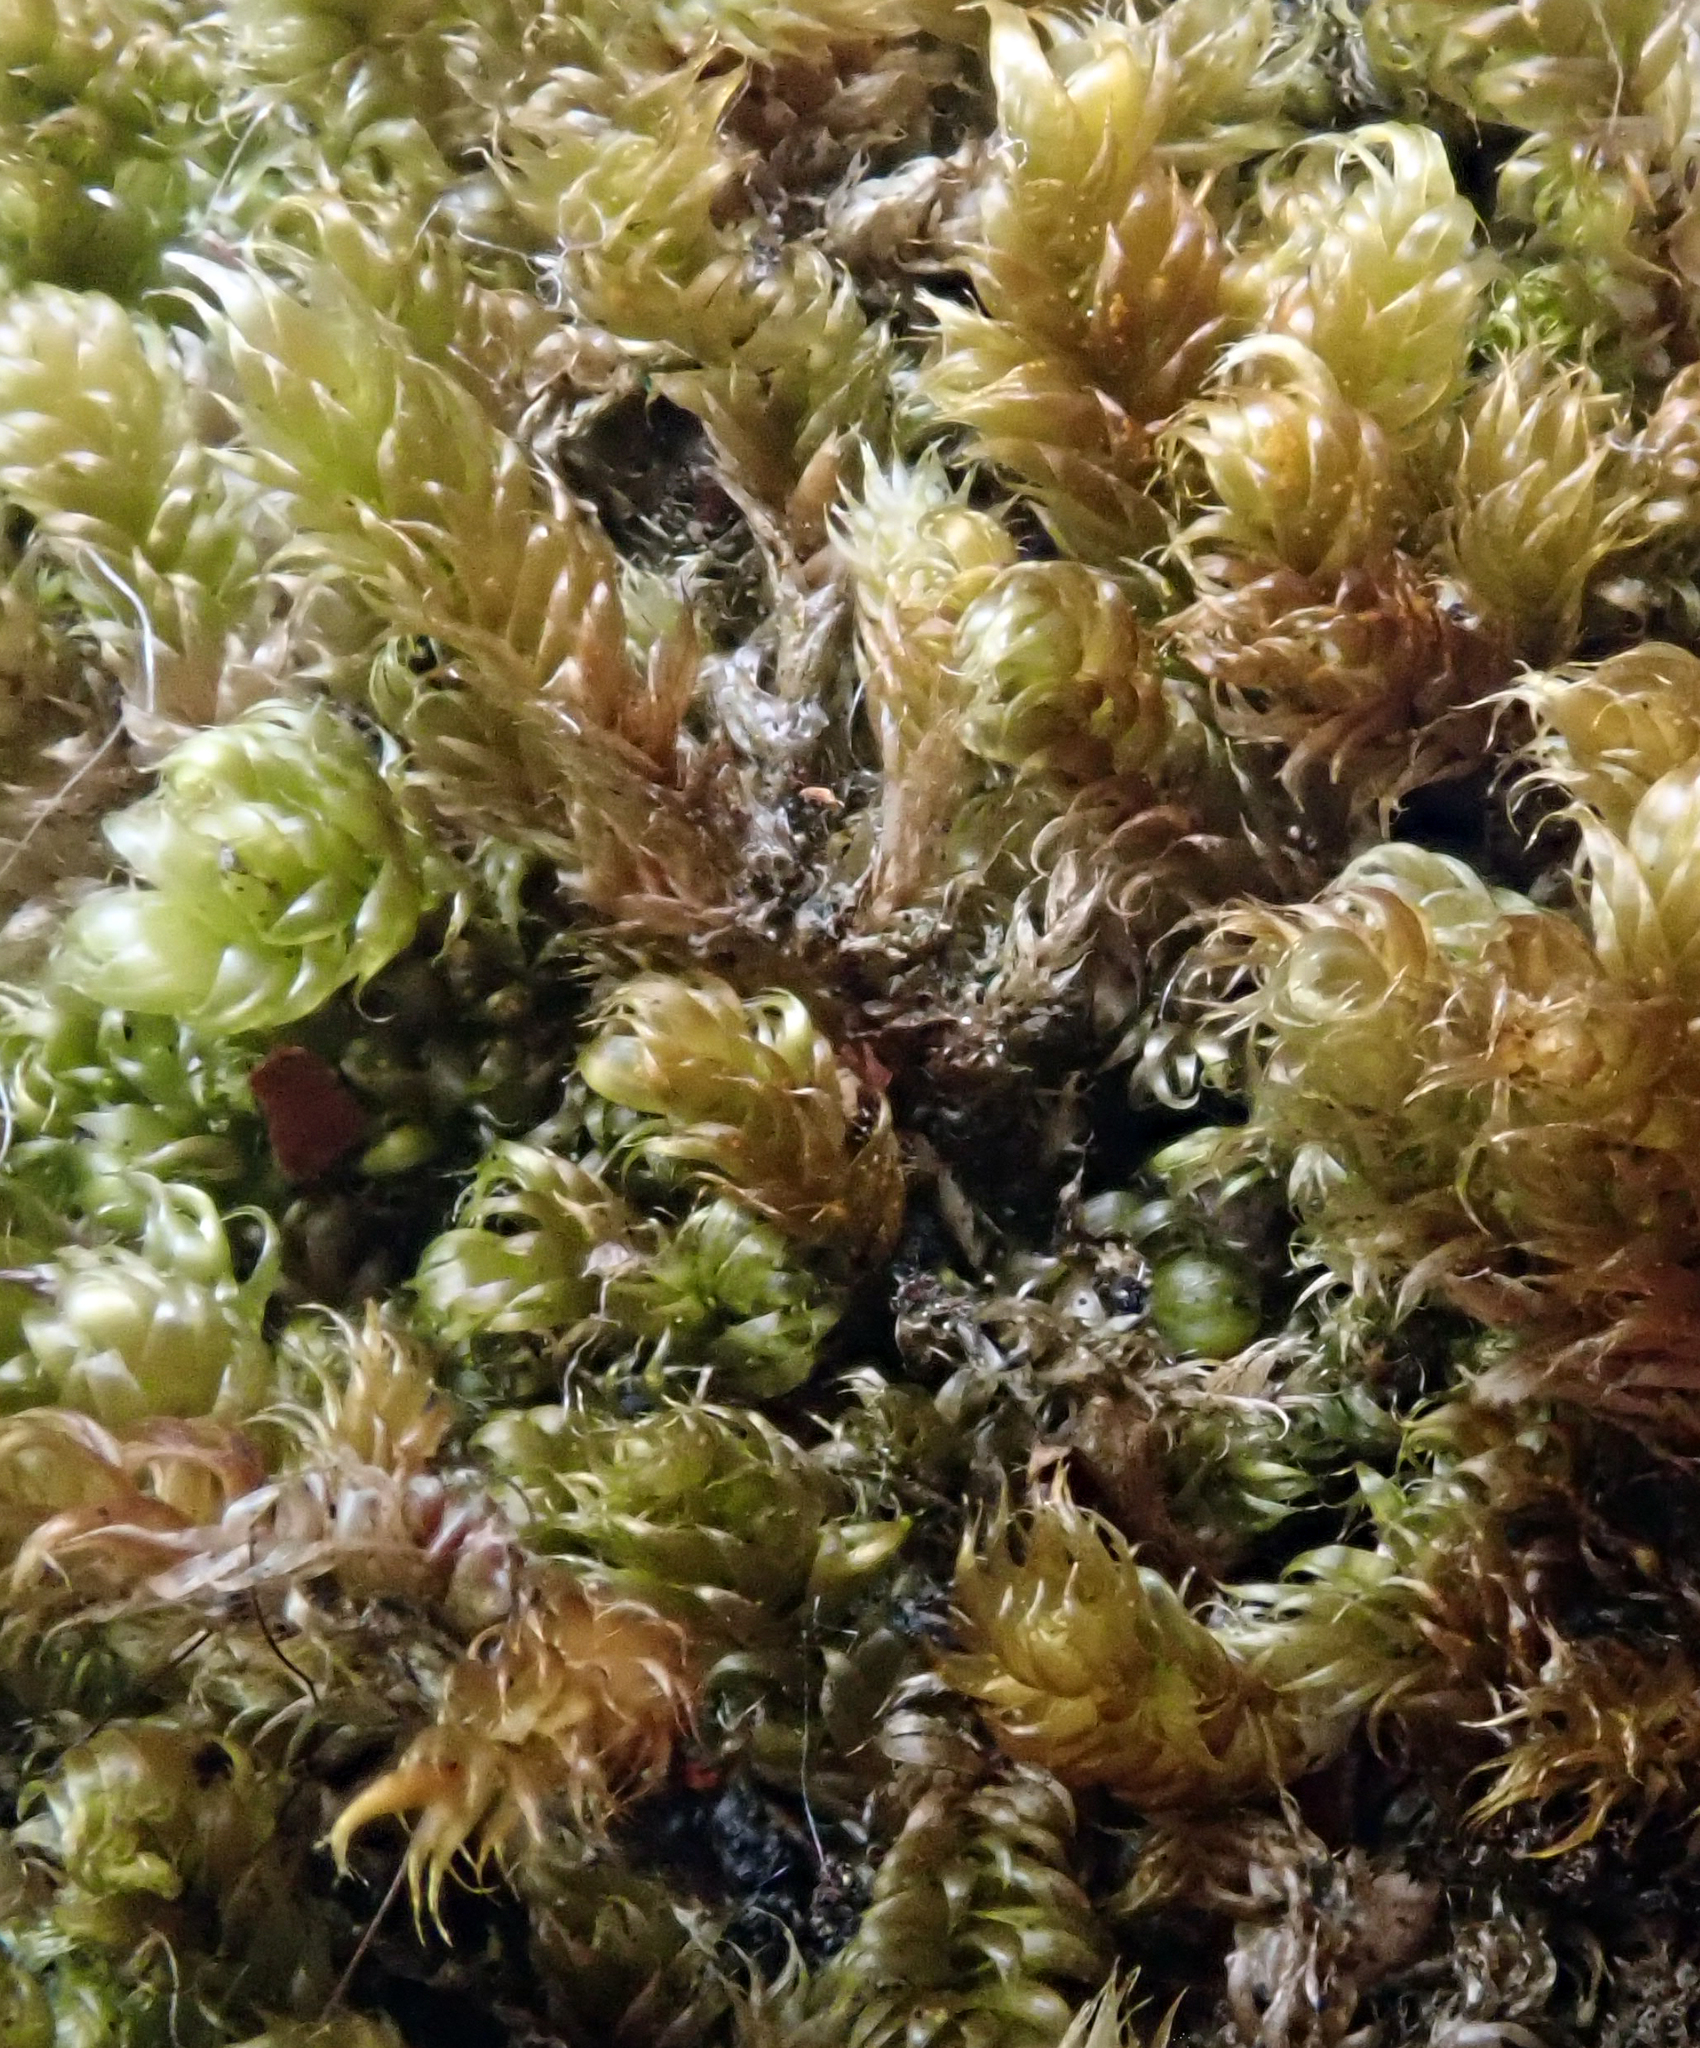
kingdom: Plantae
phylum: Bryophyta
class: Bryopsida
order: Hypnales
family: Hypnaceae
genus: Hypnum
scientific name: Hypnum cupressiforme
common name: Cypress-leaved plait-moss
